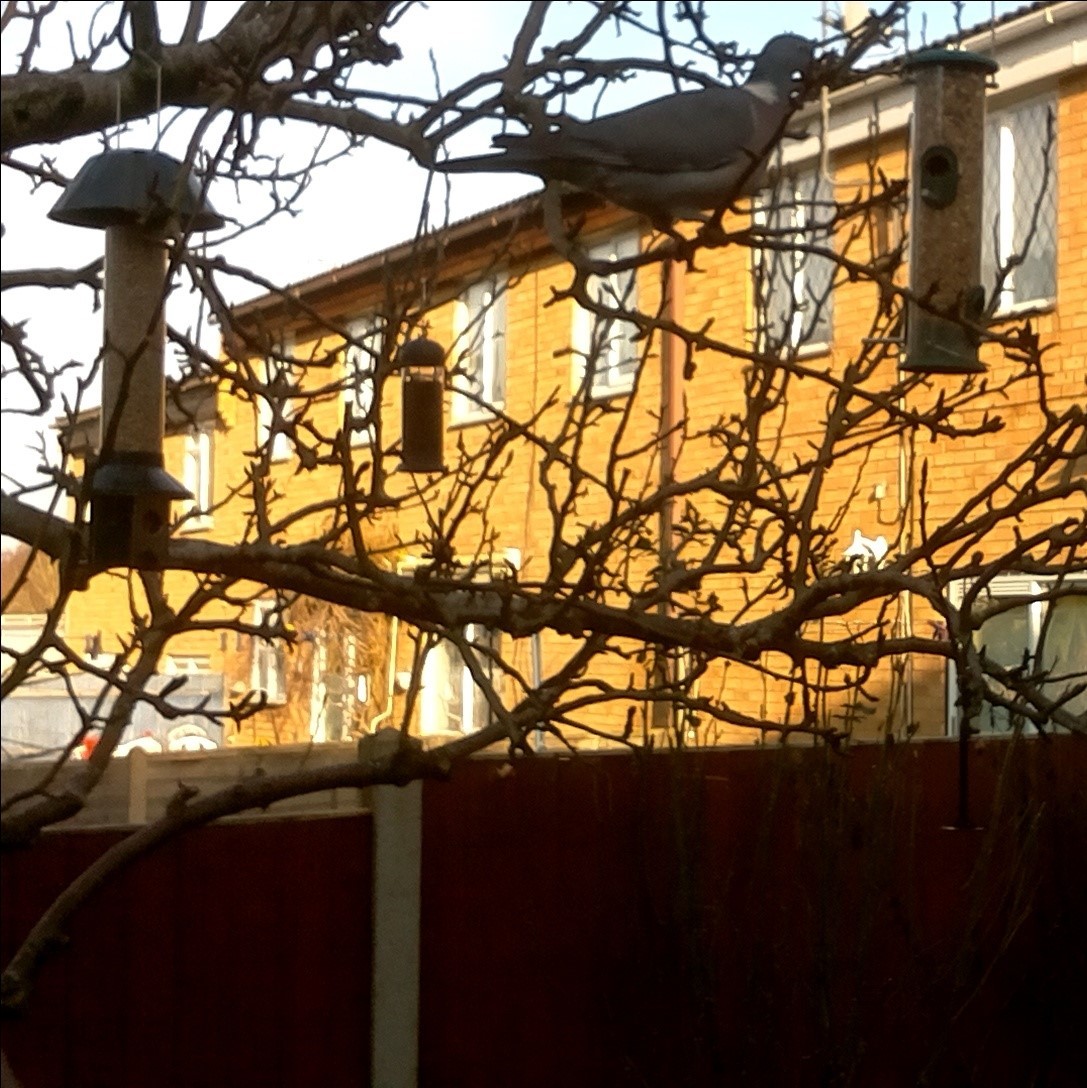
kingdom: Animalia
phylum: Chordata
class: Aves
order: Columbiformes
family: Columbidae
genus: Columba
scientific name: Columba palumbus
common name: Common wood pigeon
